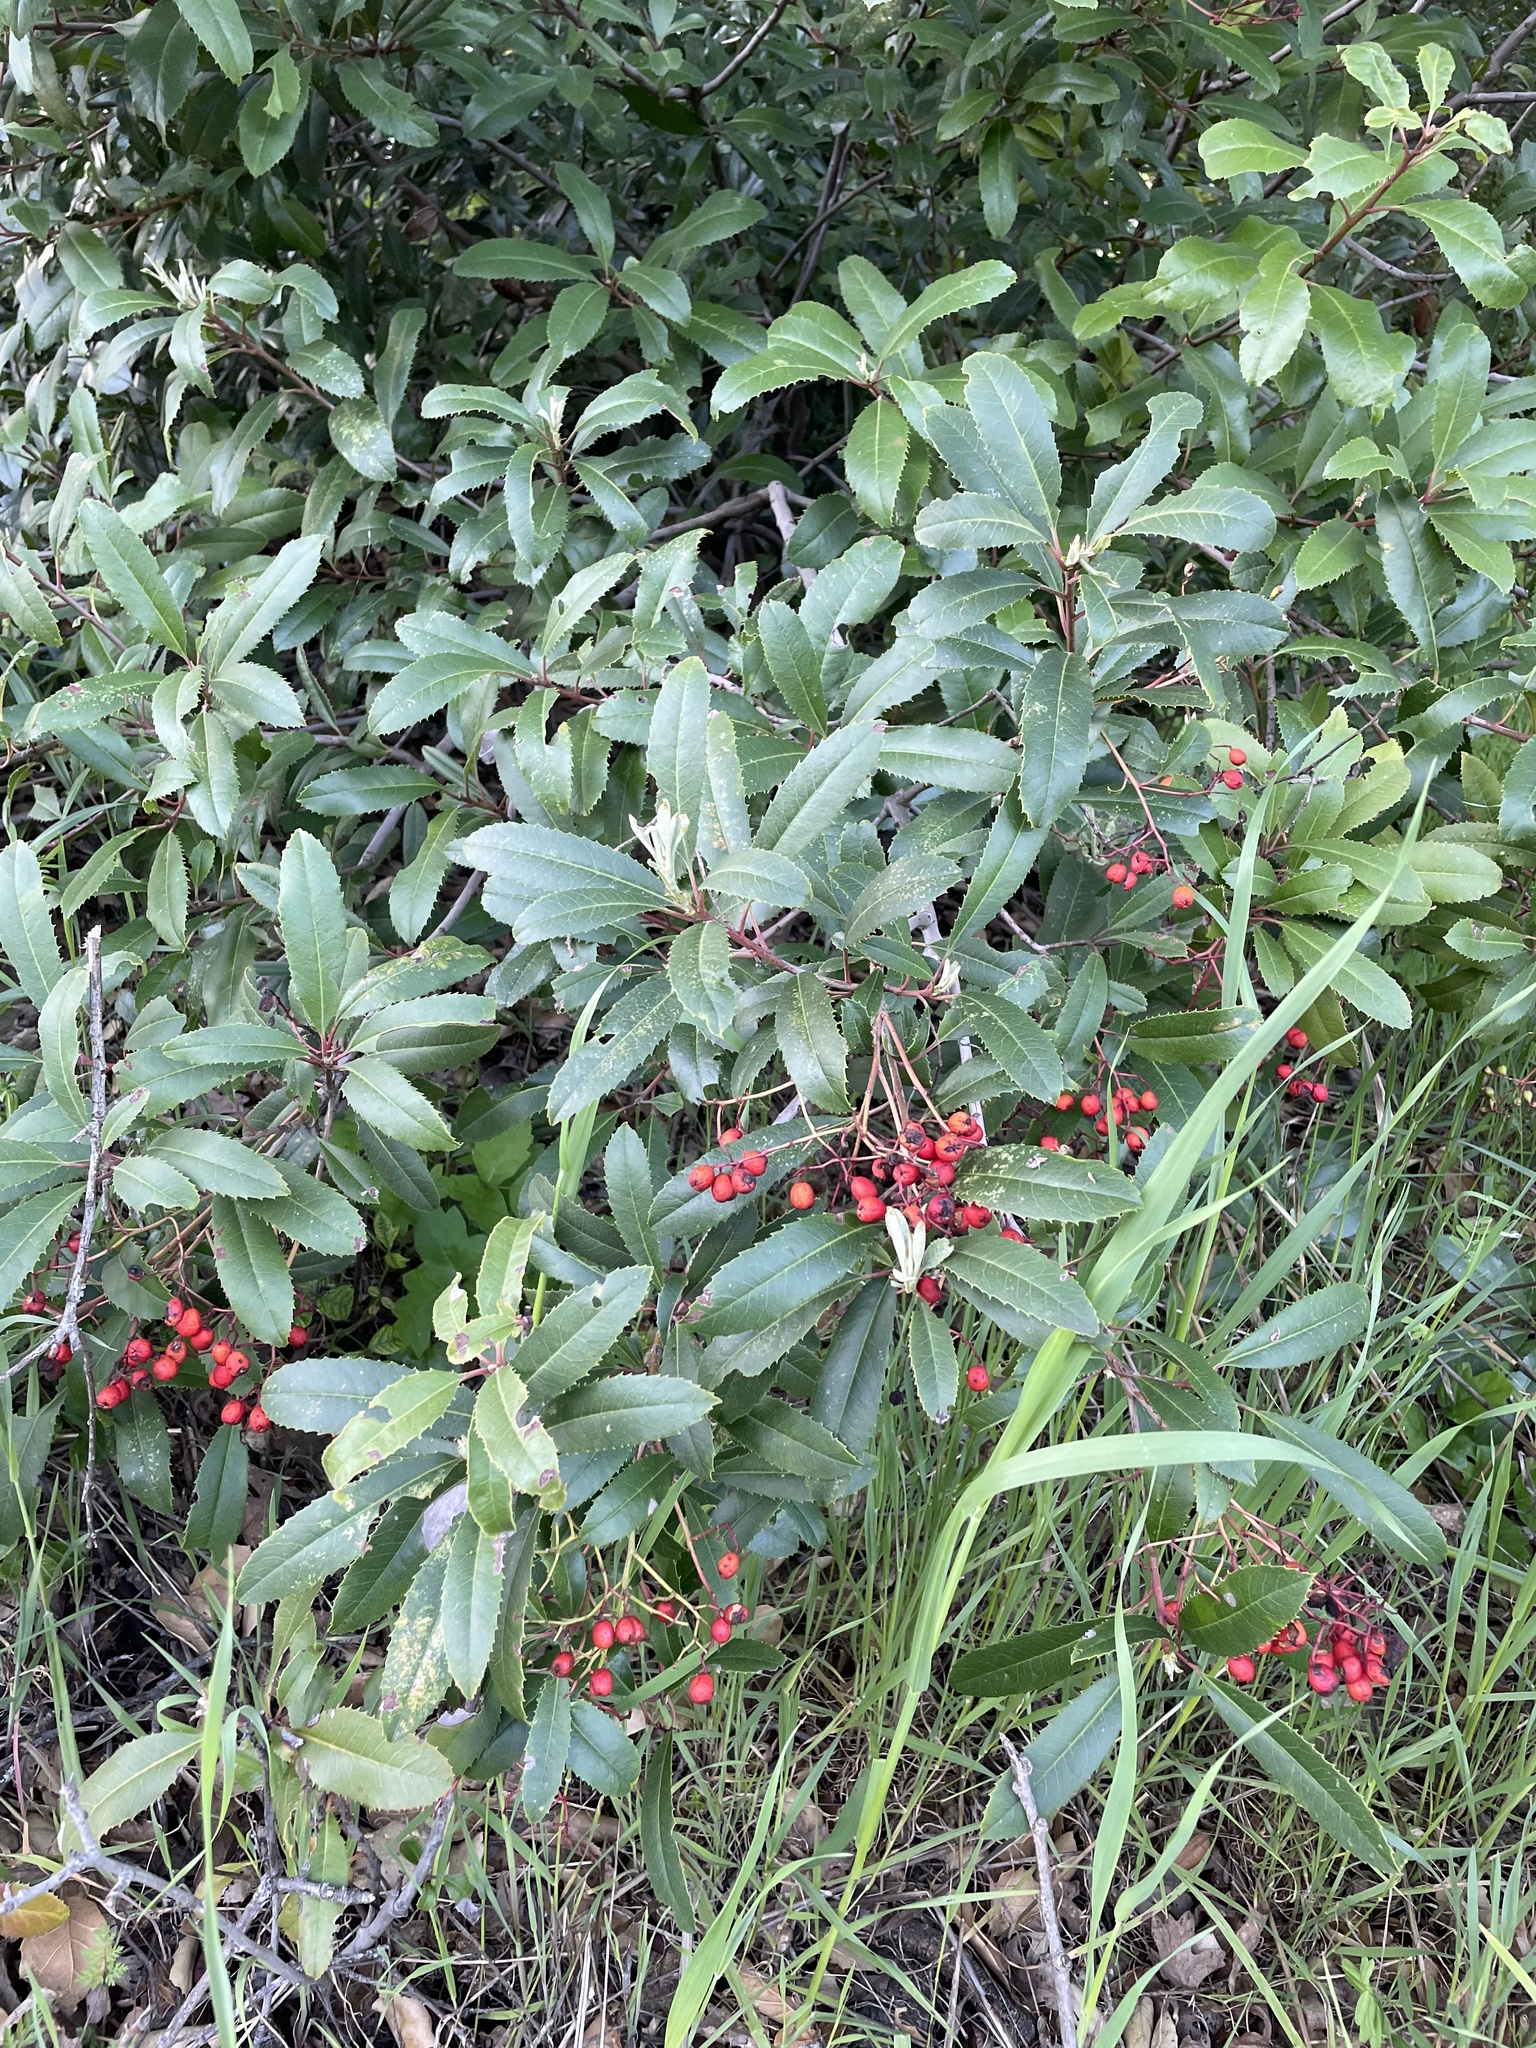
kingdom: Plantae
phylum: Tracheophyta
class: Magnoliopsida
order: Rosales
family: Rosaceae
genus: Heteromeles
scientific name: Heteromeles arbutifolia
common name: California-holly
